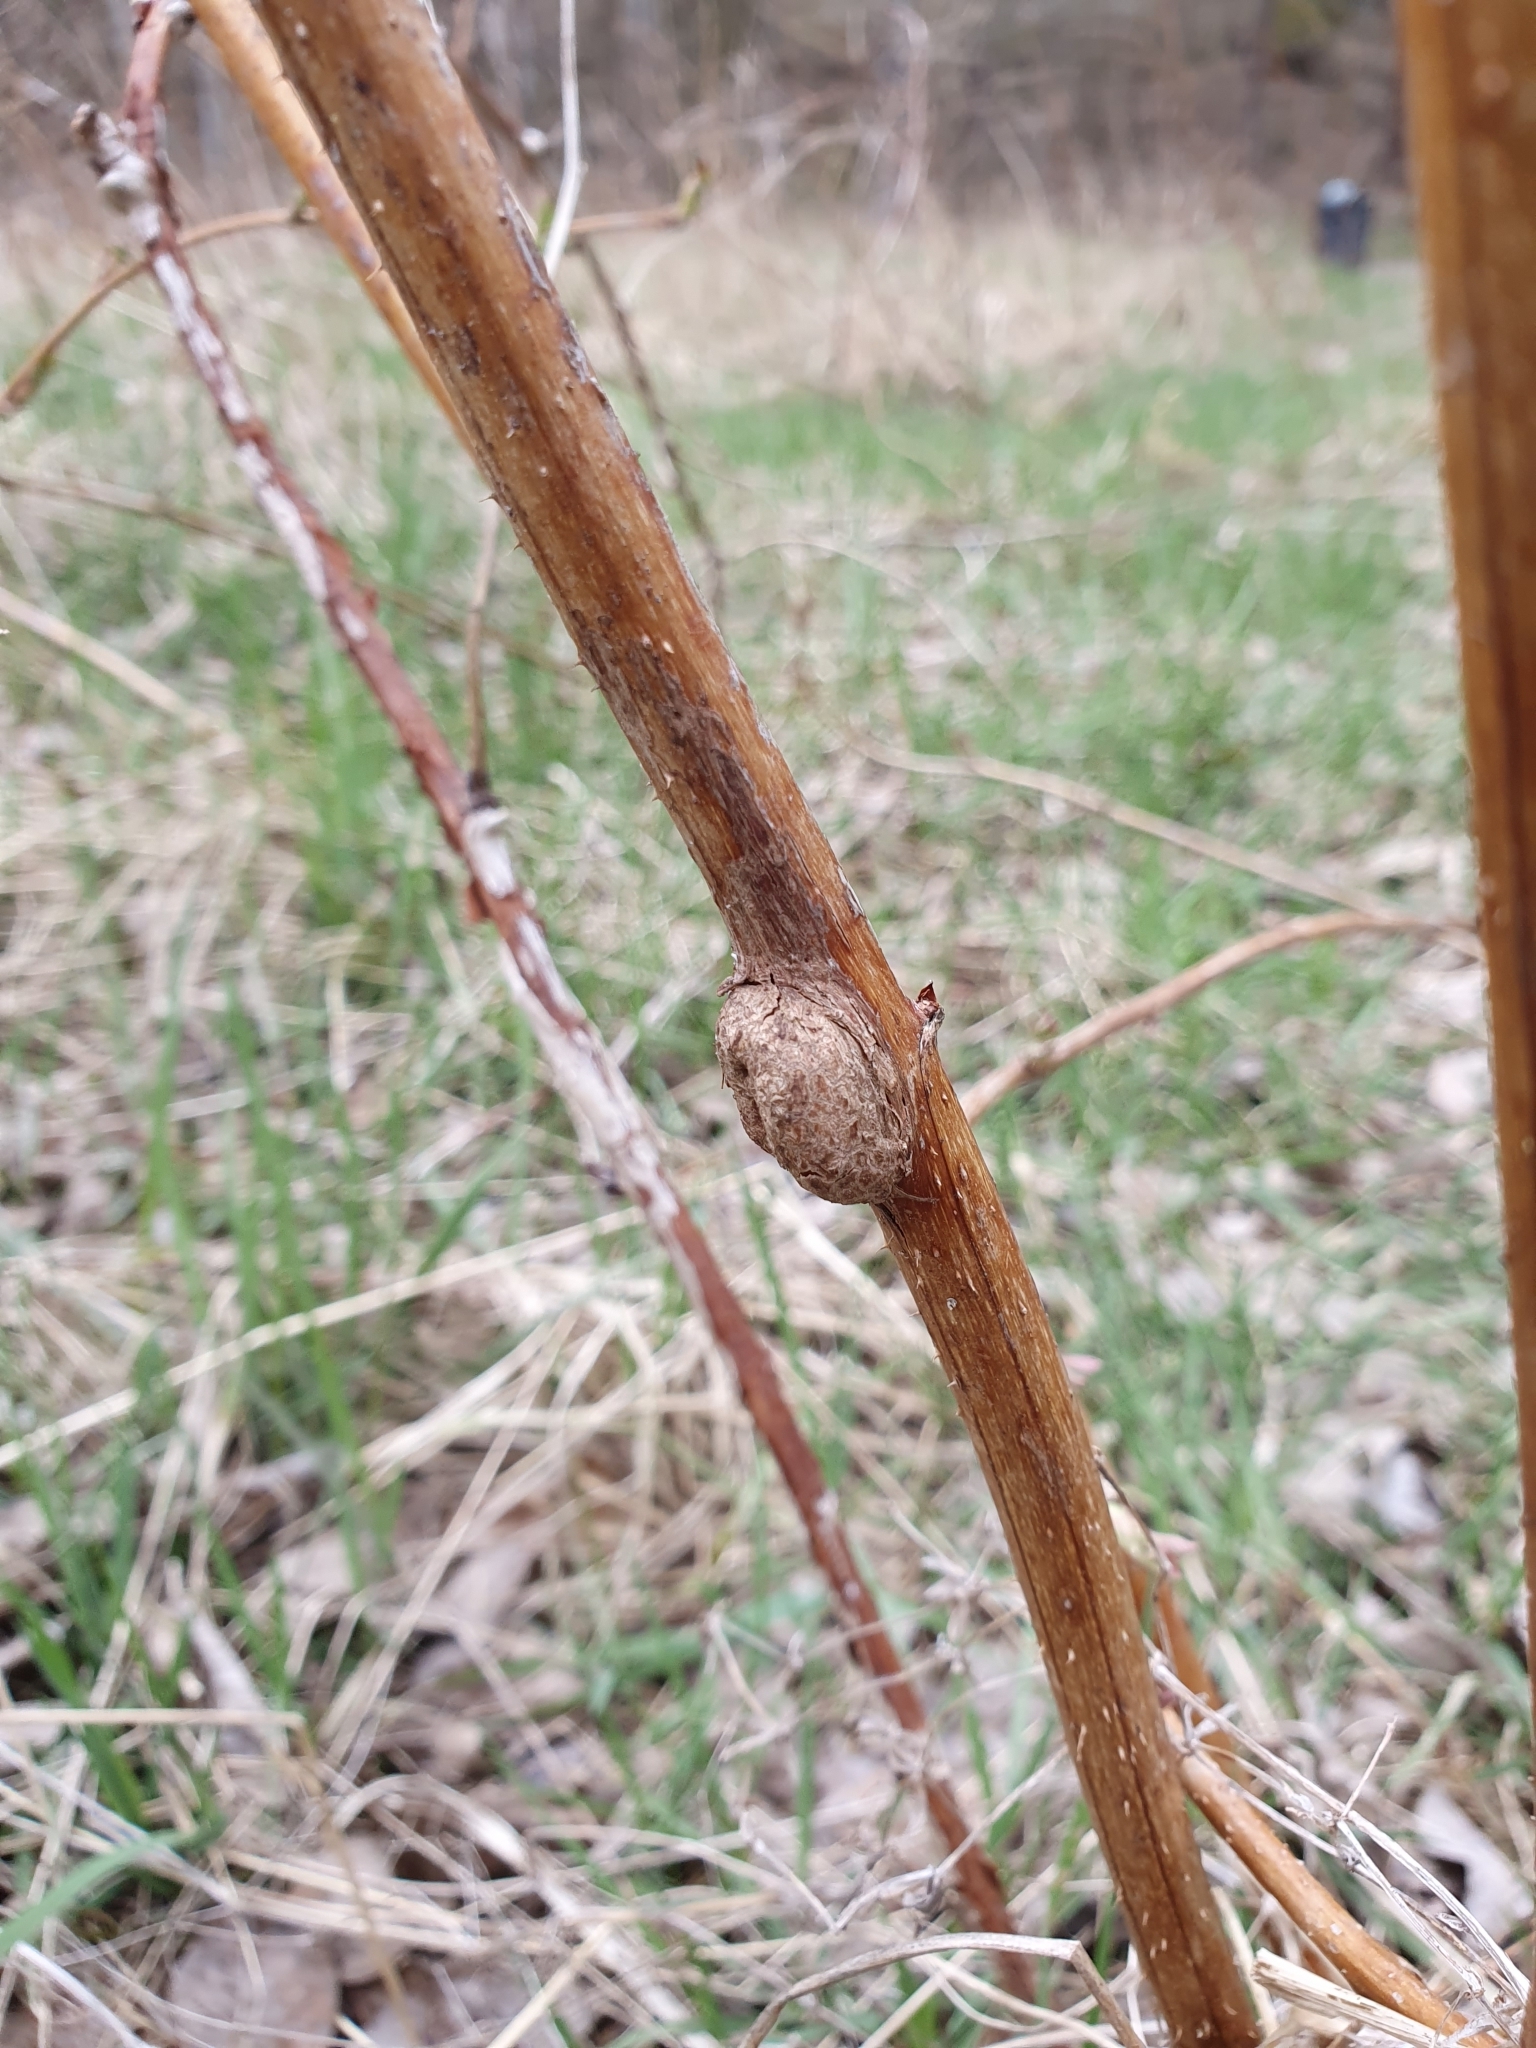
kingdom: Animalia
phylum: Arthropoda
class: Insecta
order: Diptera
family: Cecidomyiidae
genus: Lasioptera
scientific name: Lasioptera rubi
